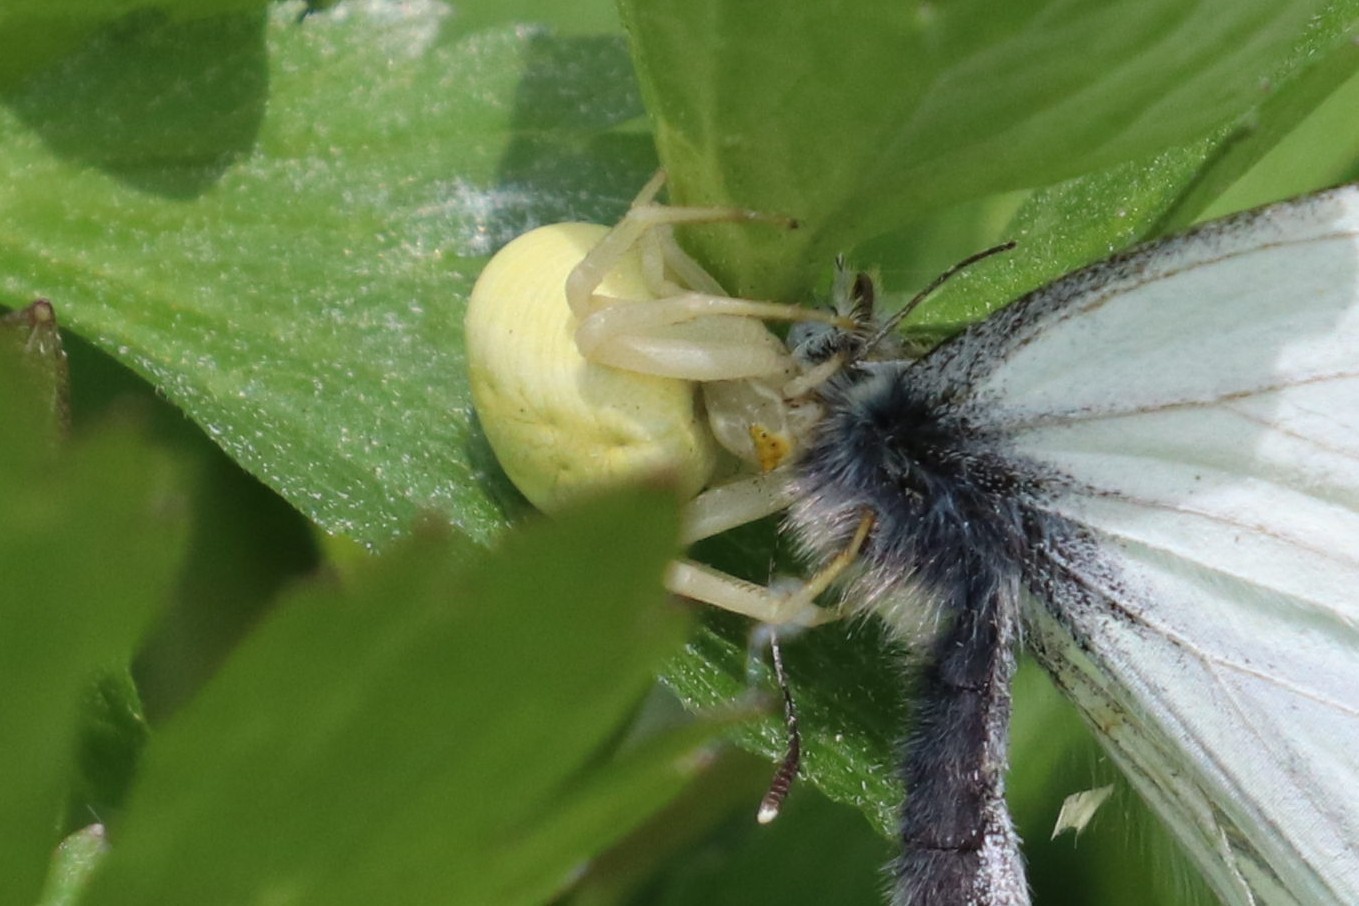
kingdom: Animalia
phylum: Arthropoda
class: Arachnida
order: Araneae
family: Thomisidae
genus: Misumena
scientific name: Misumena vatia
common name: Goldenrod crab spider
